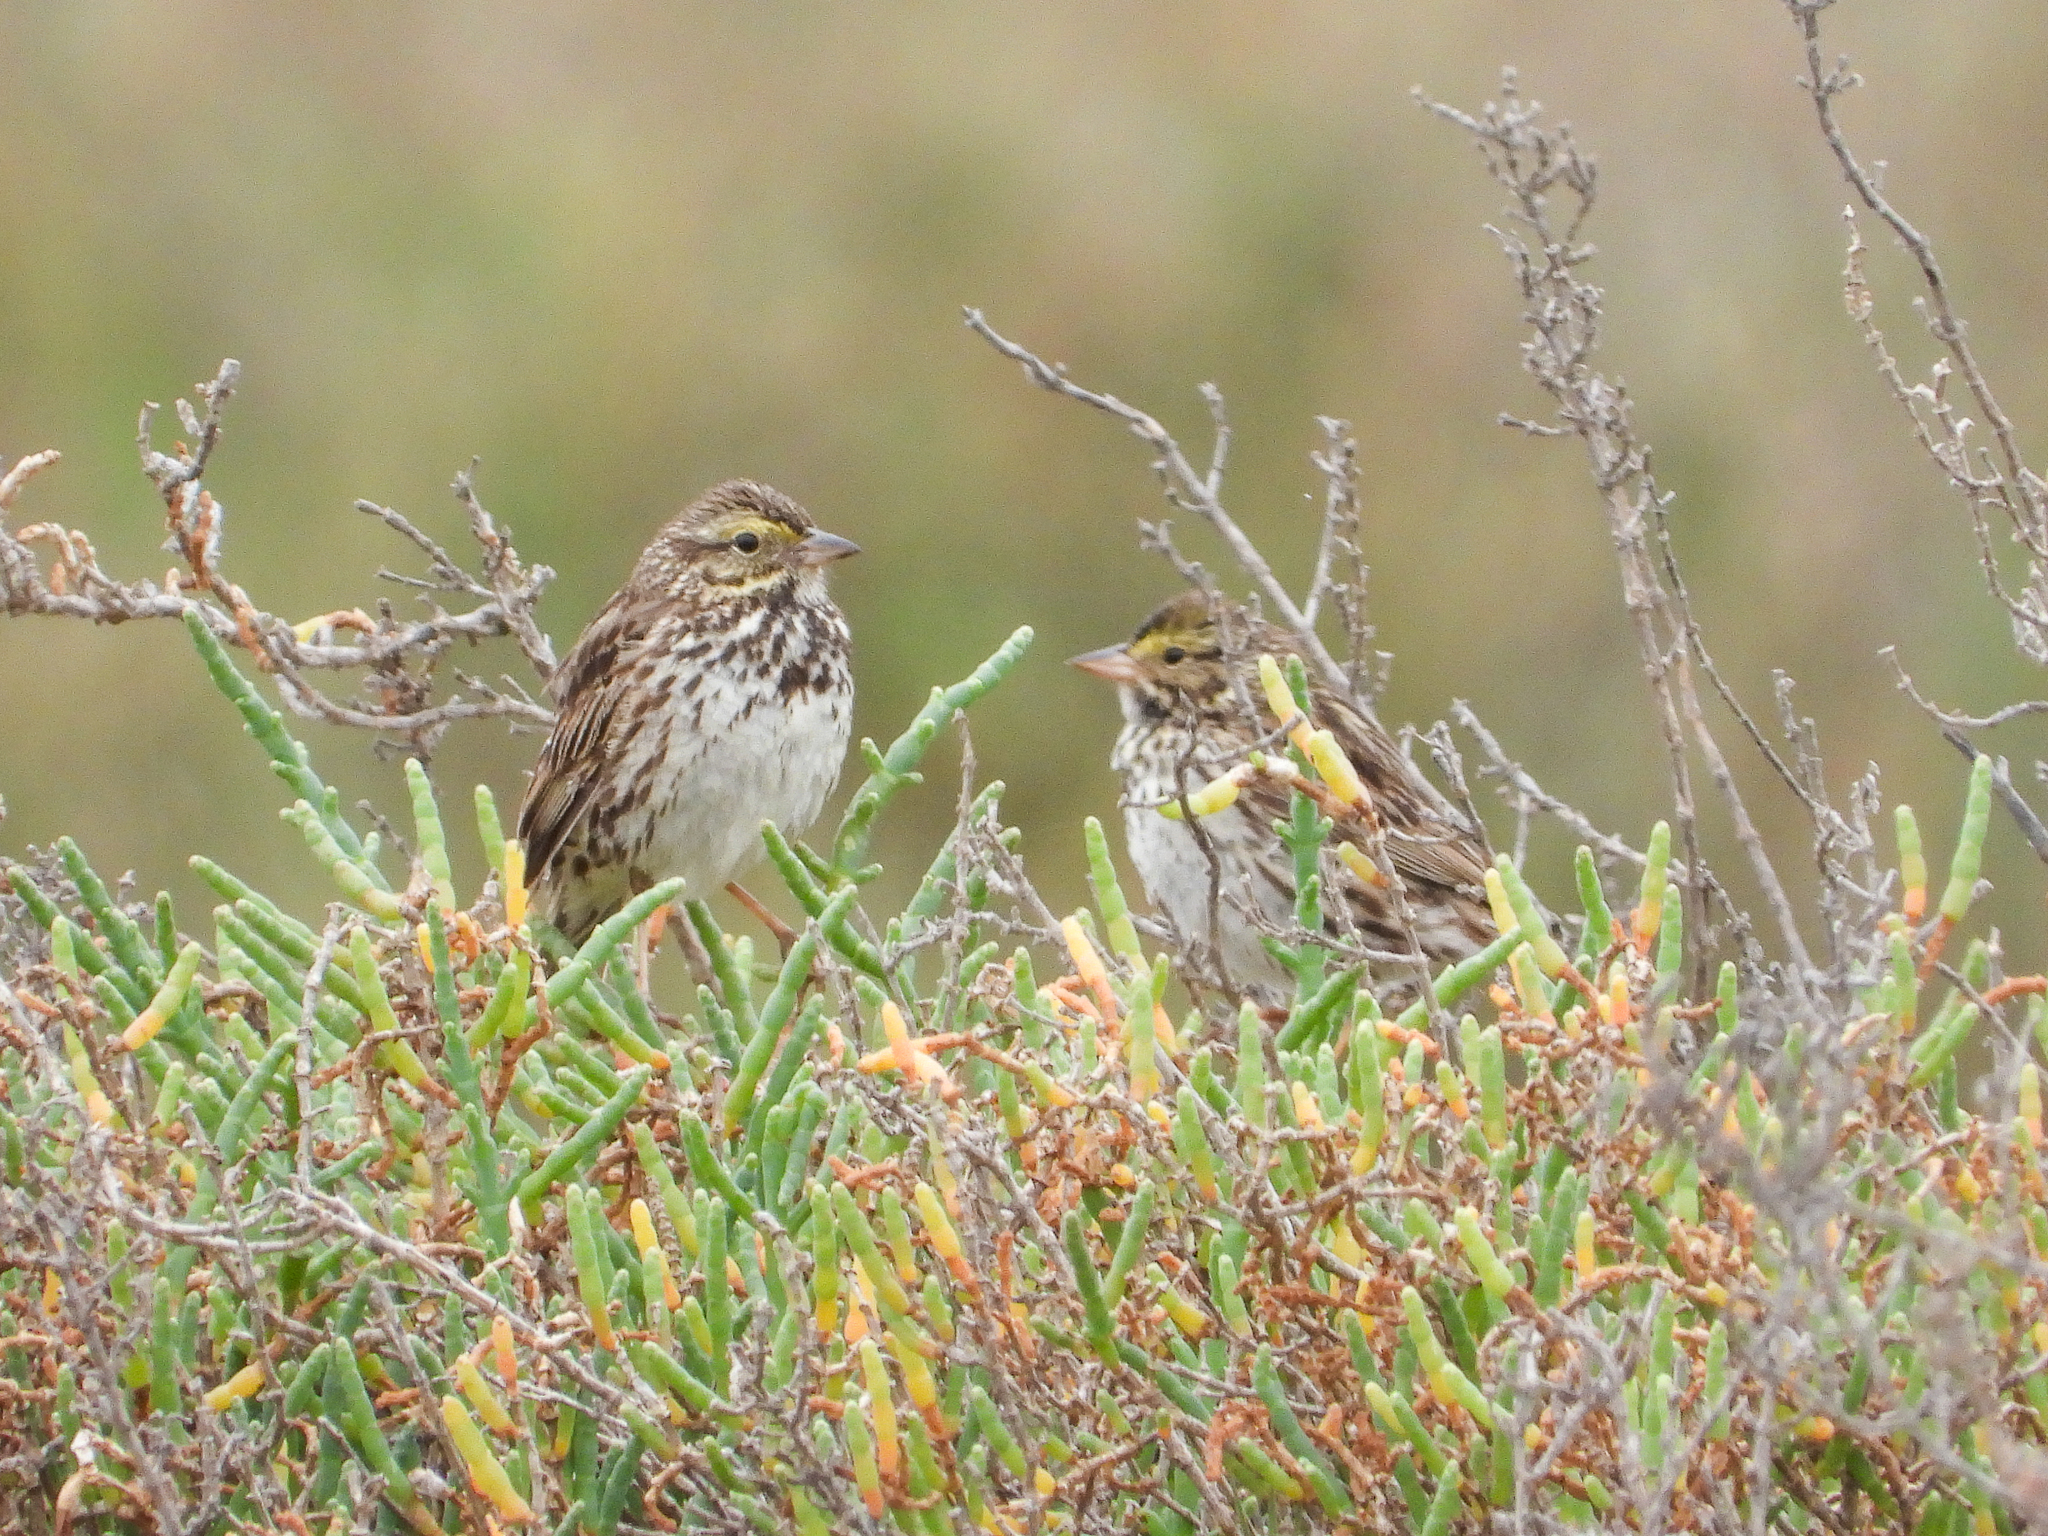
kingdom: Animalia
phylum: Chordata
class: Aves
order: Passeriformes
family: Passerellidae
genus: Passerculus
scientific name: Passerculus sandwichensis
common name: Savannah sparrow
